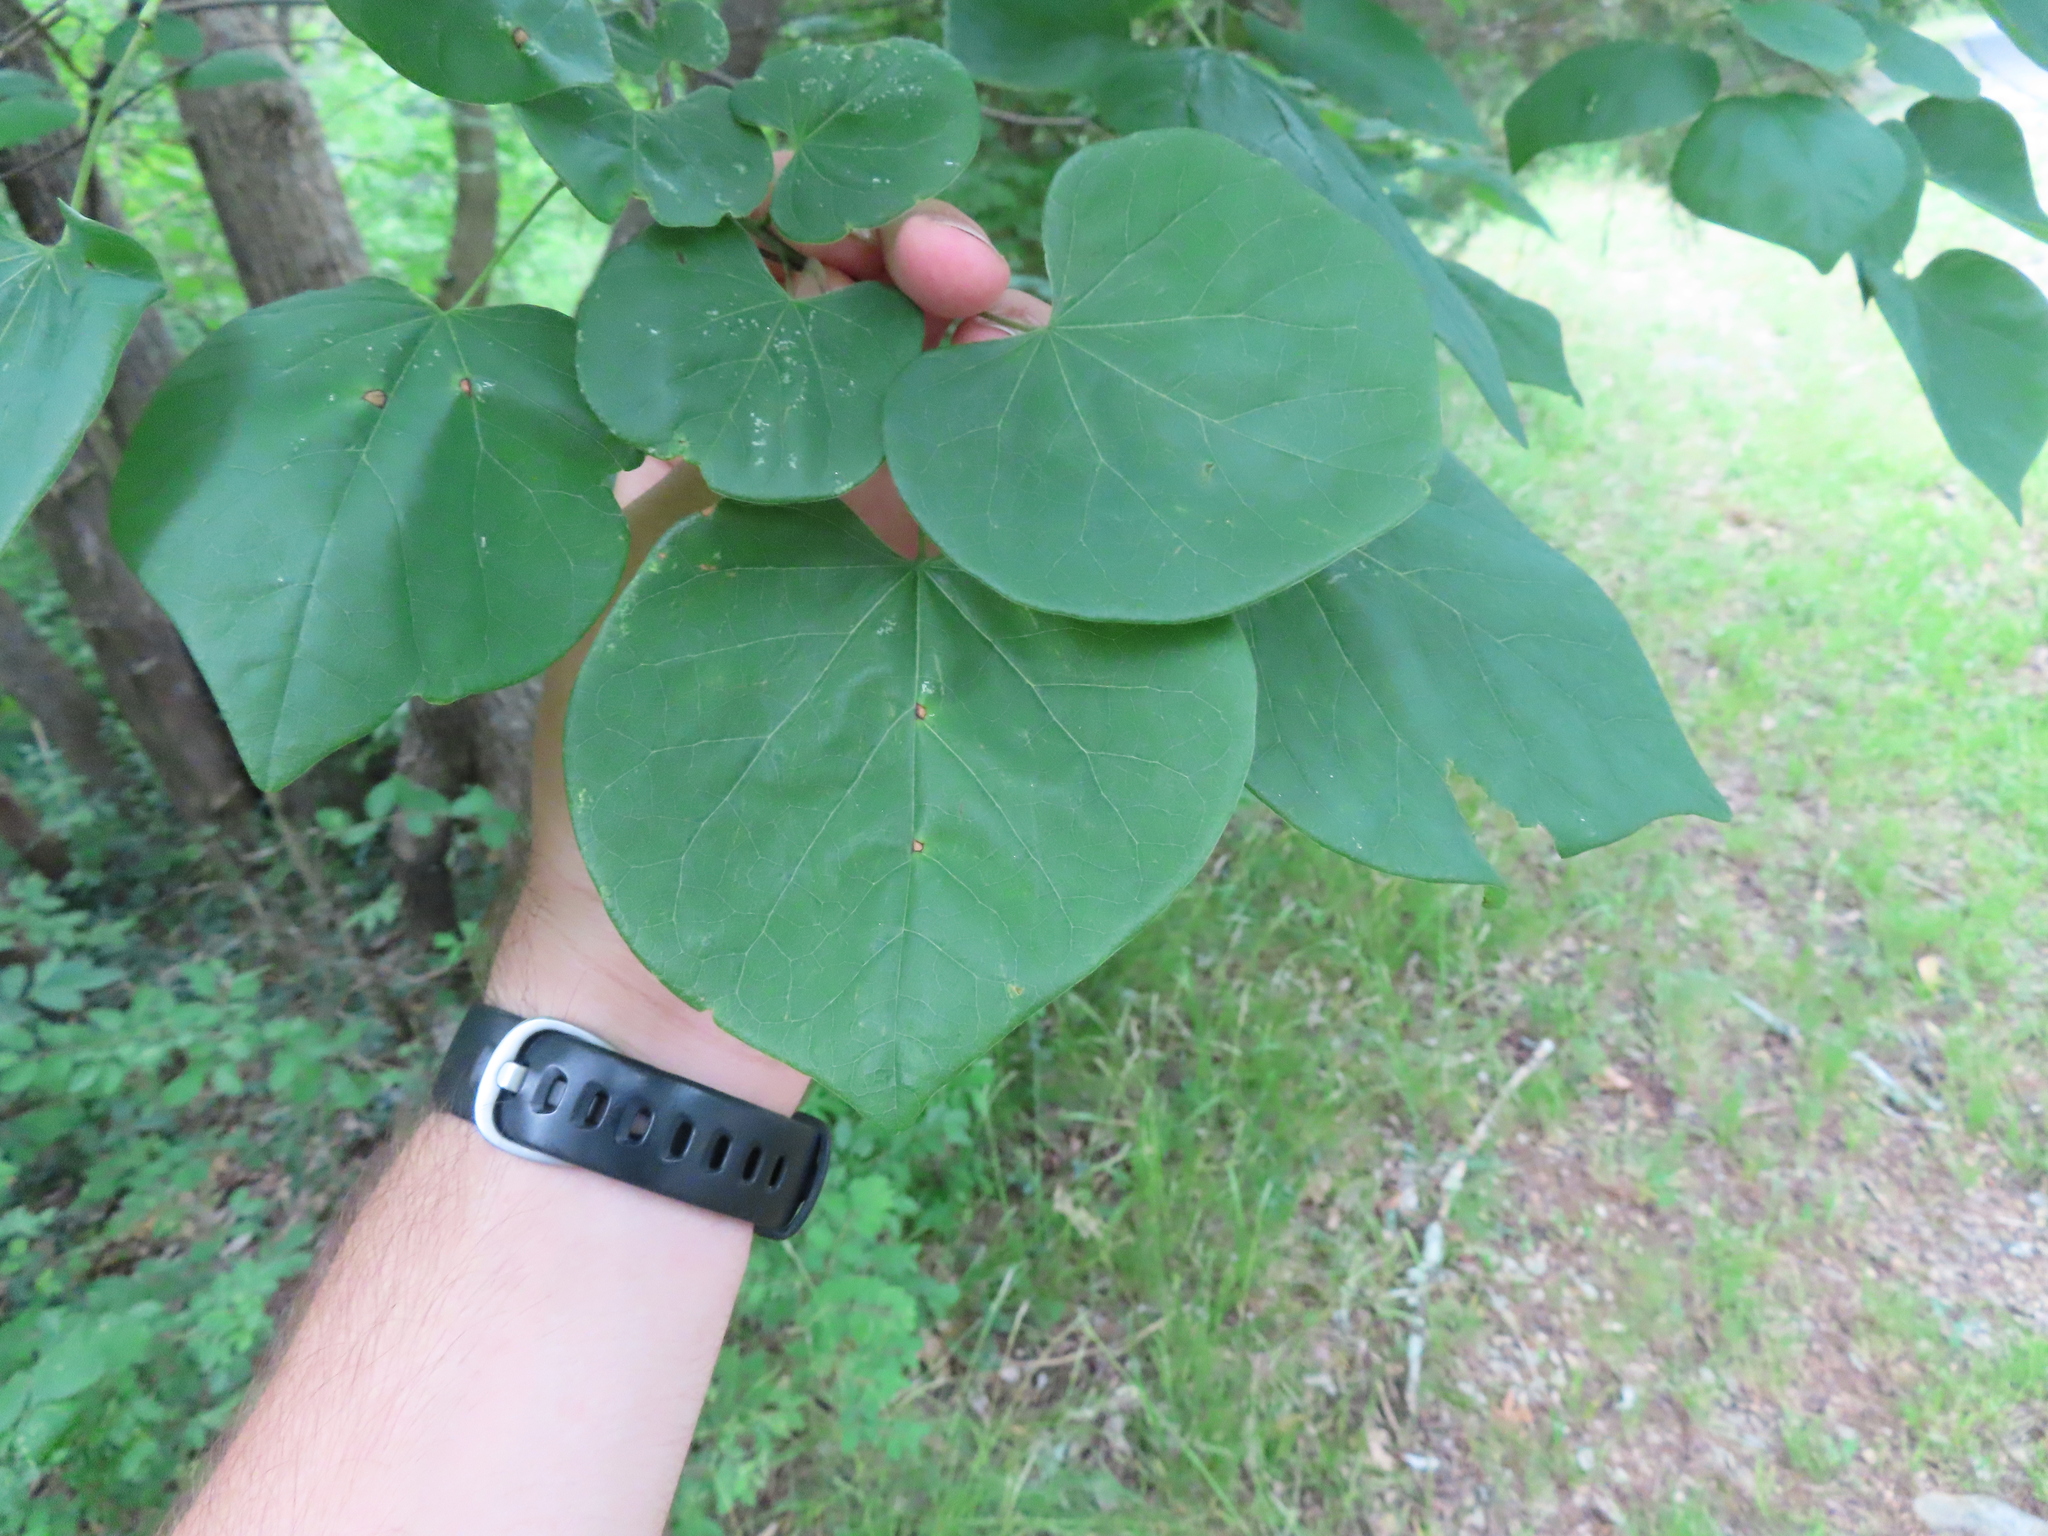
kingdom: Plantae
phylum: Tracheophyta
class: Magnoliopsida
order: Fabales
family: Fabaceae
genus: Cercis
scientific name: Cercis canadensis
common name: Eastern redbud
